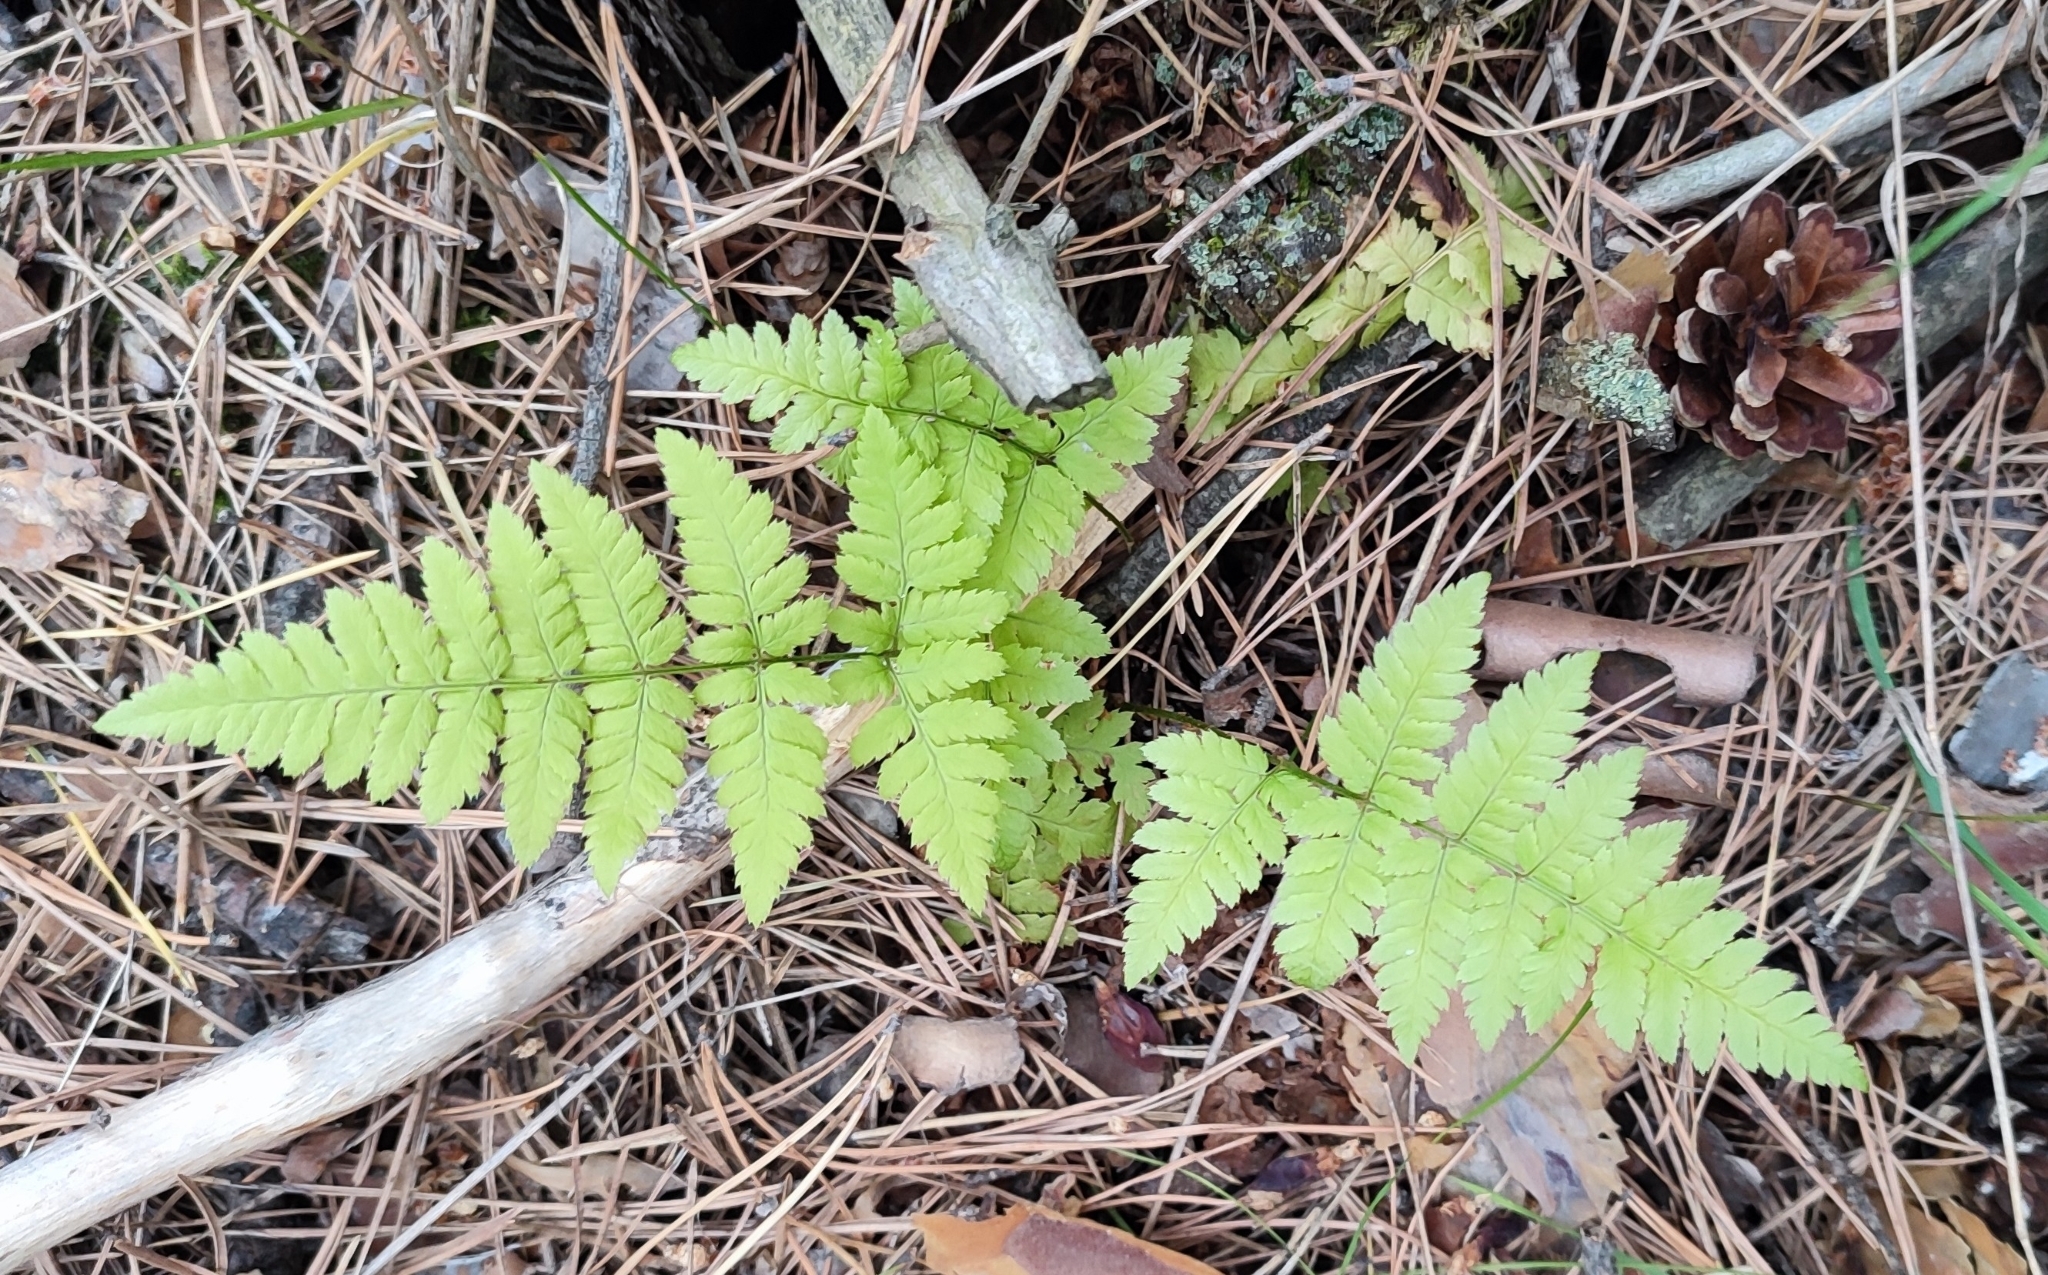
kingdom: Plantae
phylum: Tracheophyta
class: Polypodiopsida
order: Polypodiales
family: Dryopteridaceae
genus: Dryopteris
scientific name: Dryopteris carthusiana
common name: Narrow buckler-fern
